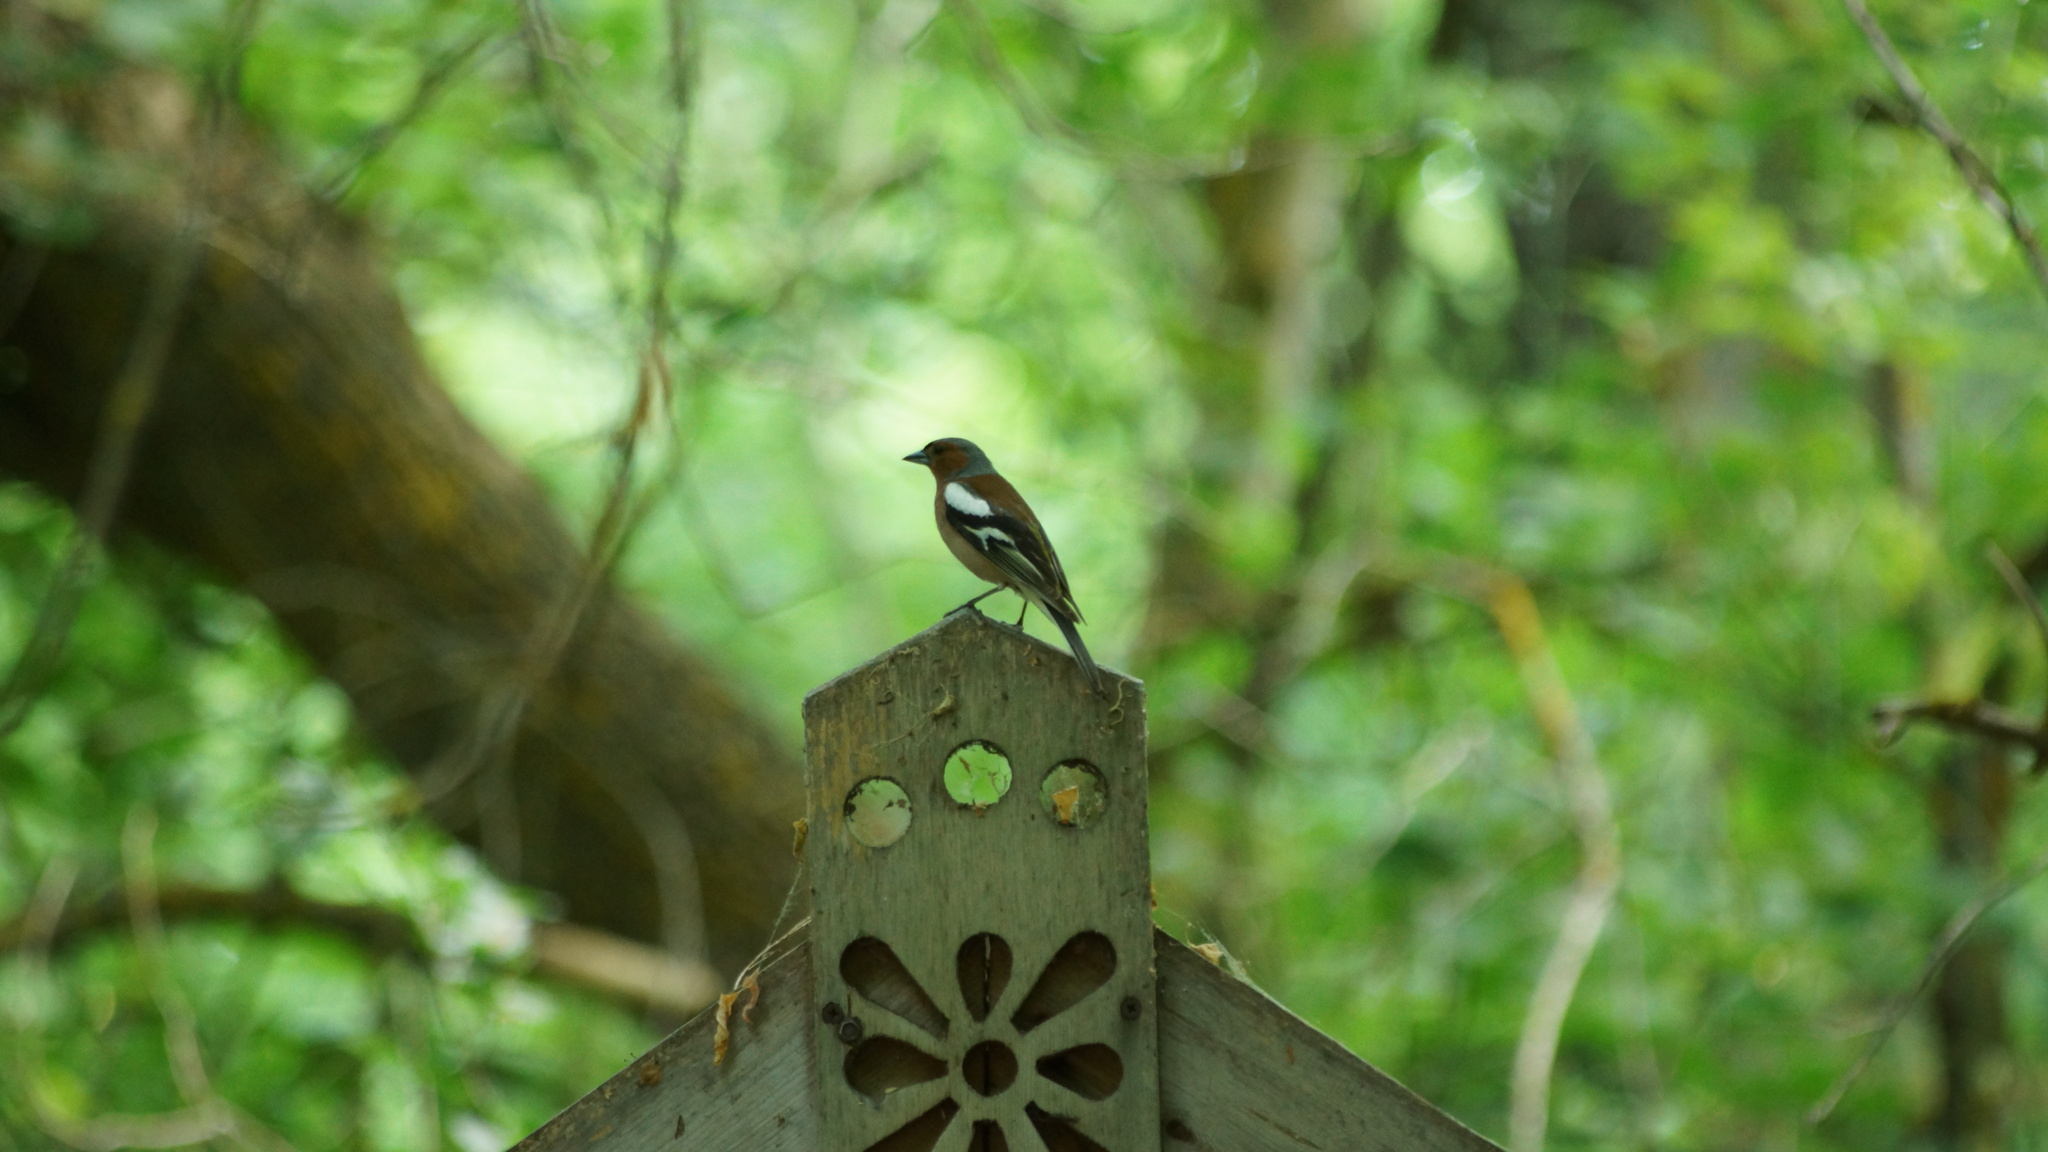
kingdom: Animalia
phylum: Chordata
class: Aves
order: Passeriformes
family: Fringillidae
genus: Fringilla
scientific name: Fringilla coelebs
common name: Common chaffinch
